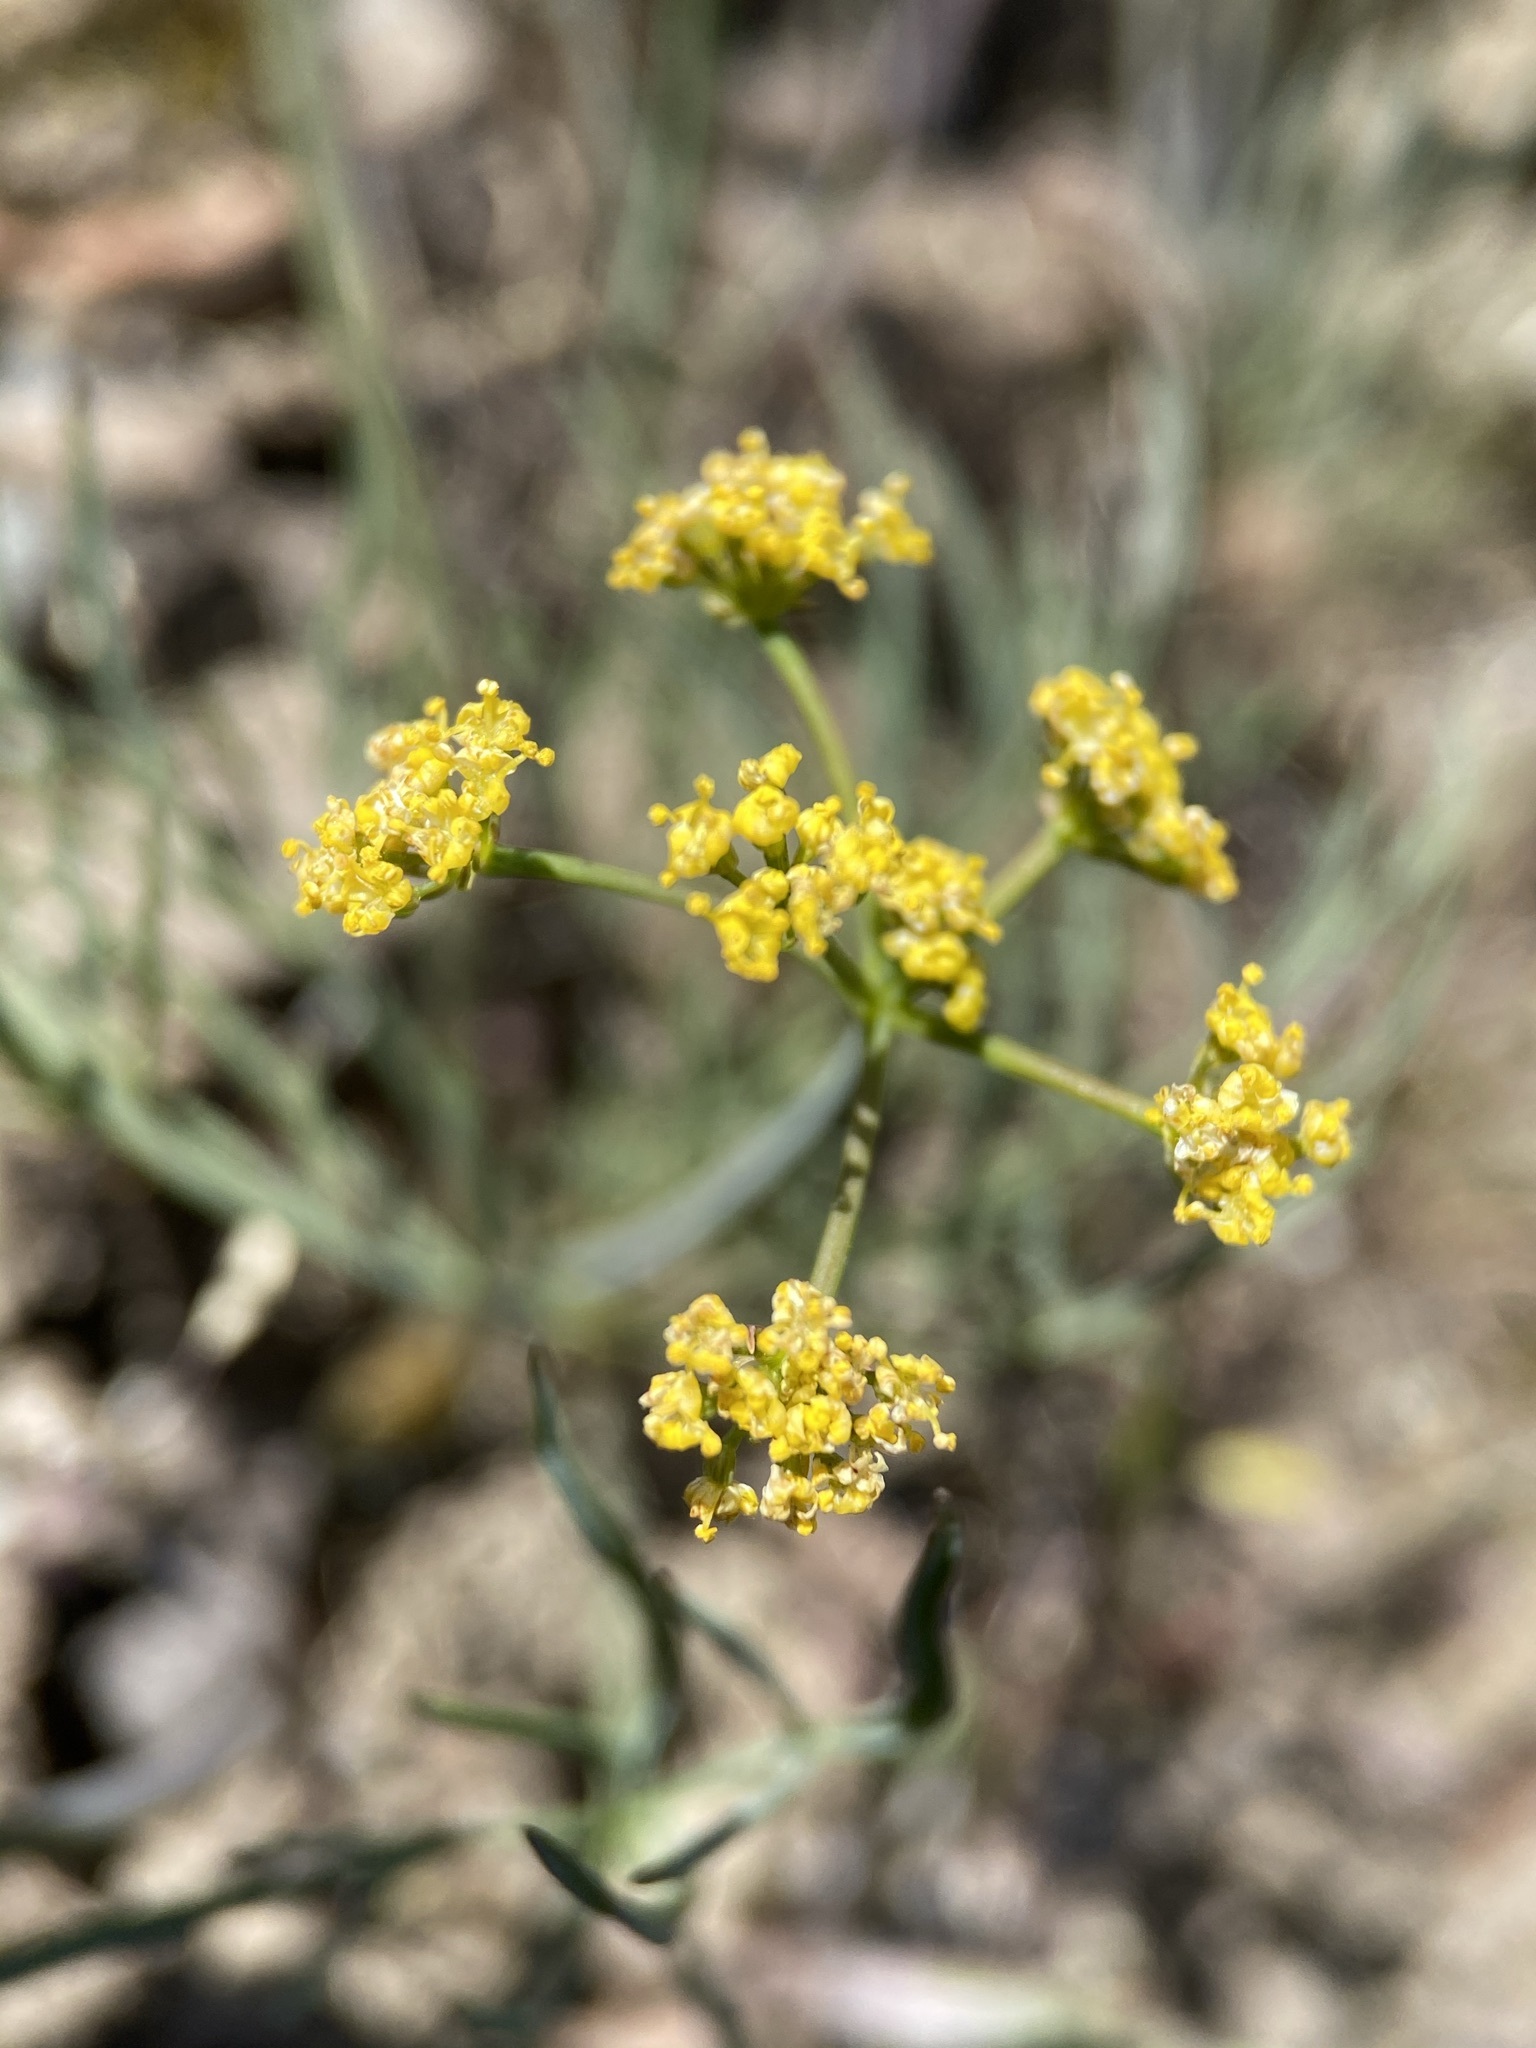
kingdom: Plantae
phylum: Tracheophyta
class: Magnoliopsida
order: Apiales
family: Apiaceae
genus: Lomatium
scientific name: Lomatium triternatum
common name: Ternate lomatium
